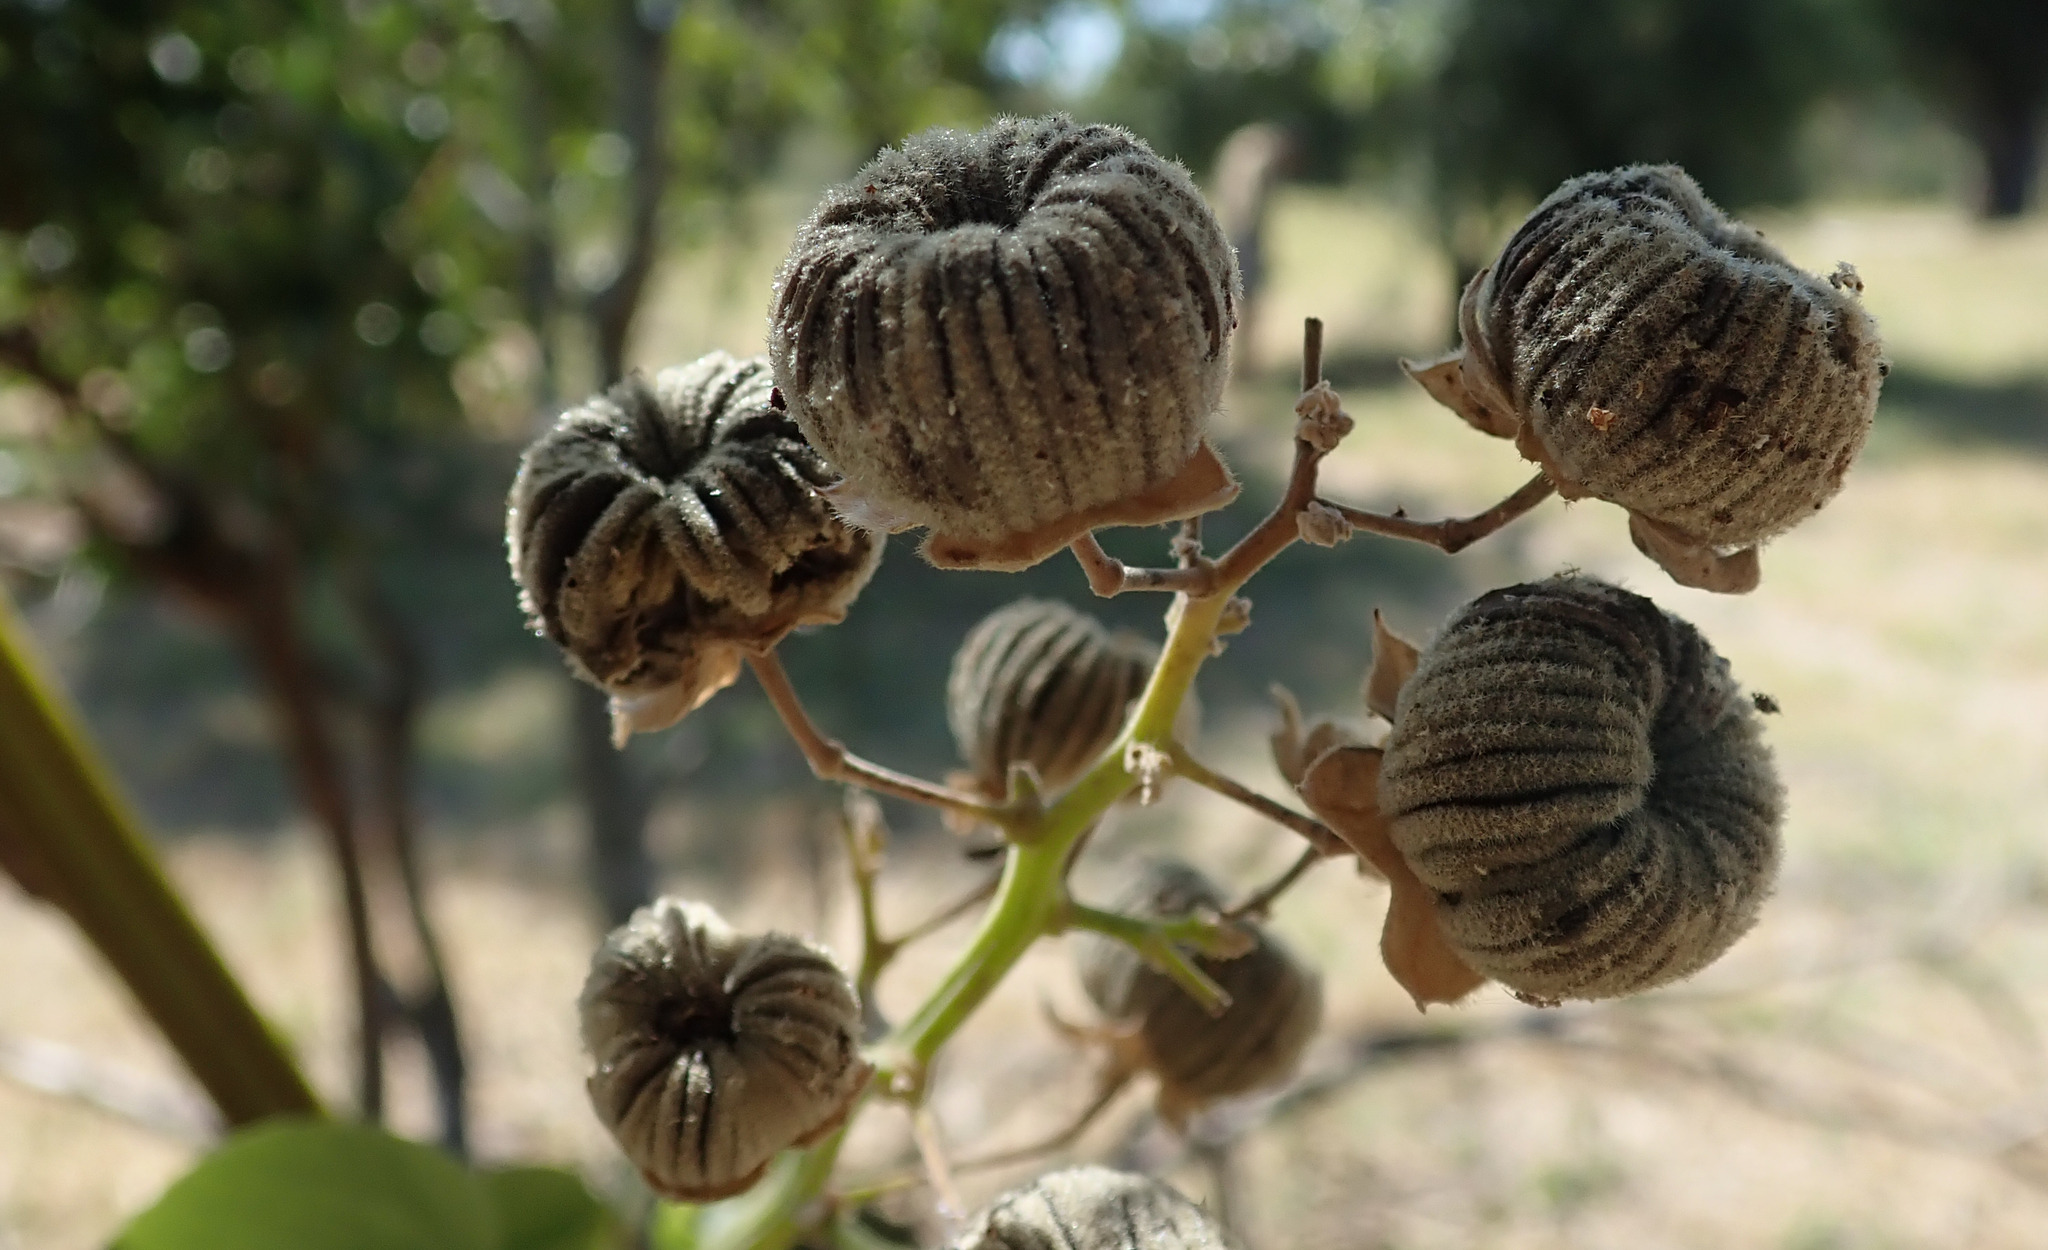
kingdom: Plantae
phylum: Tracheophyta
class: Magnoliopsida
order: Malvales
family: Malvaceae
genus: Abutilon
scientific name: Abutilon angulatum
